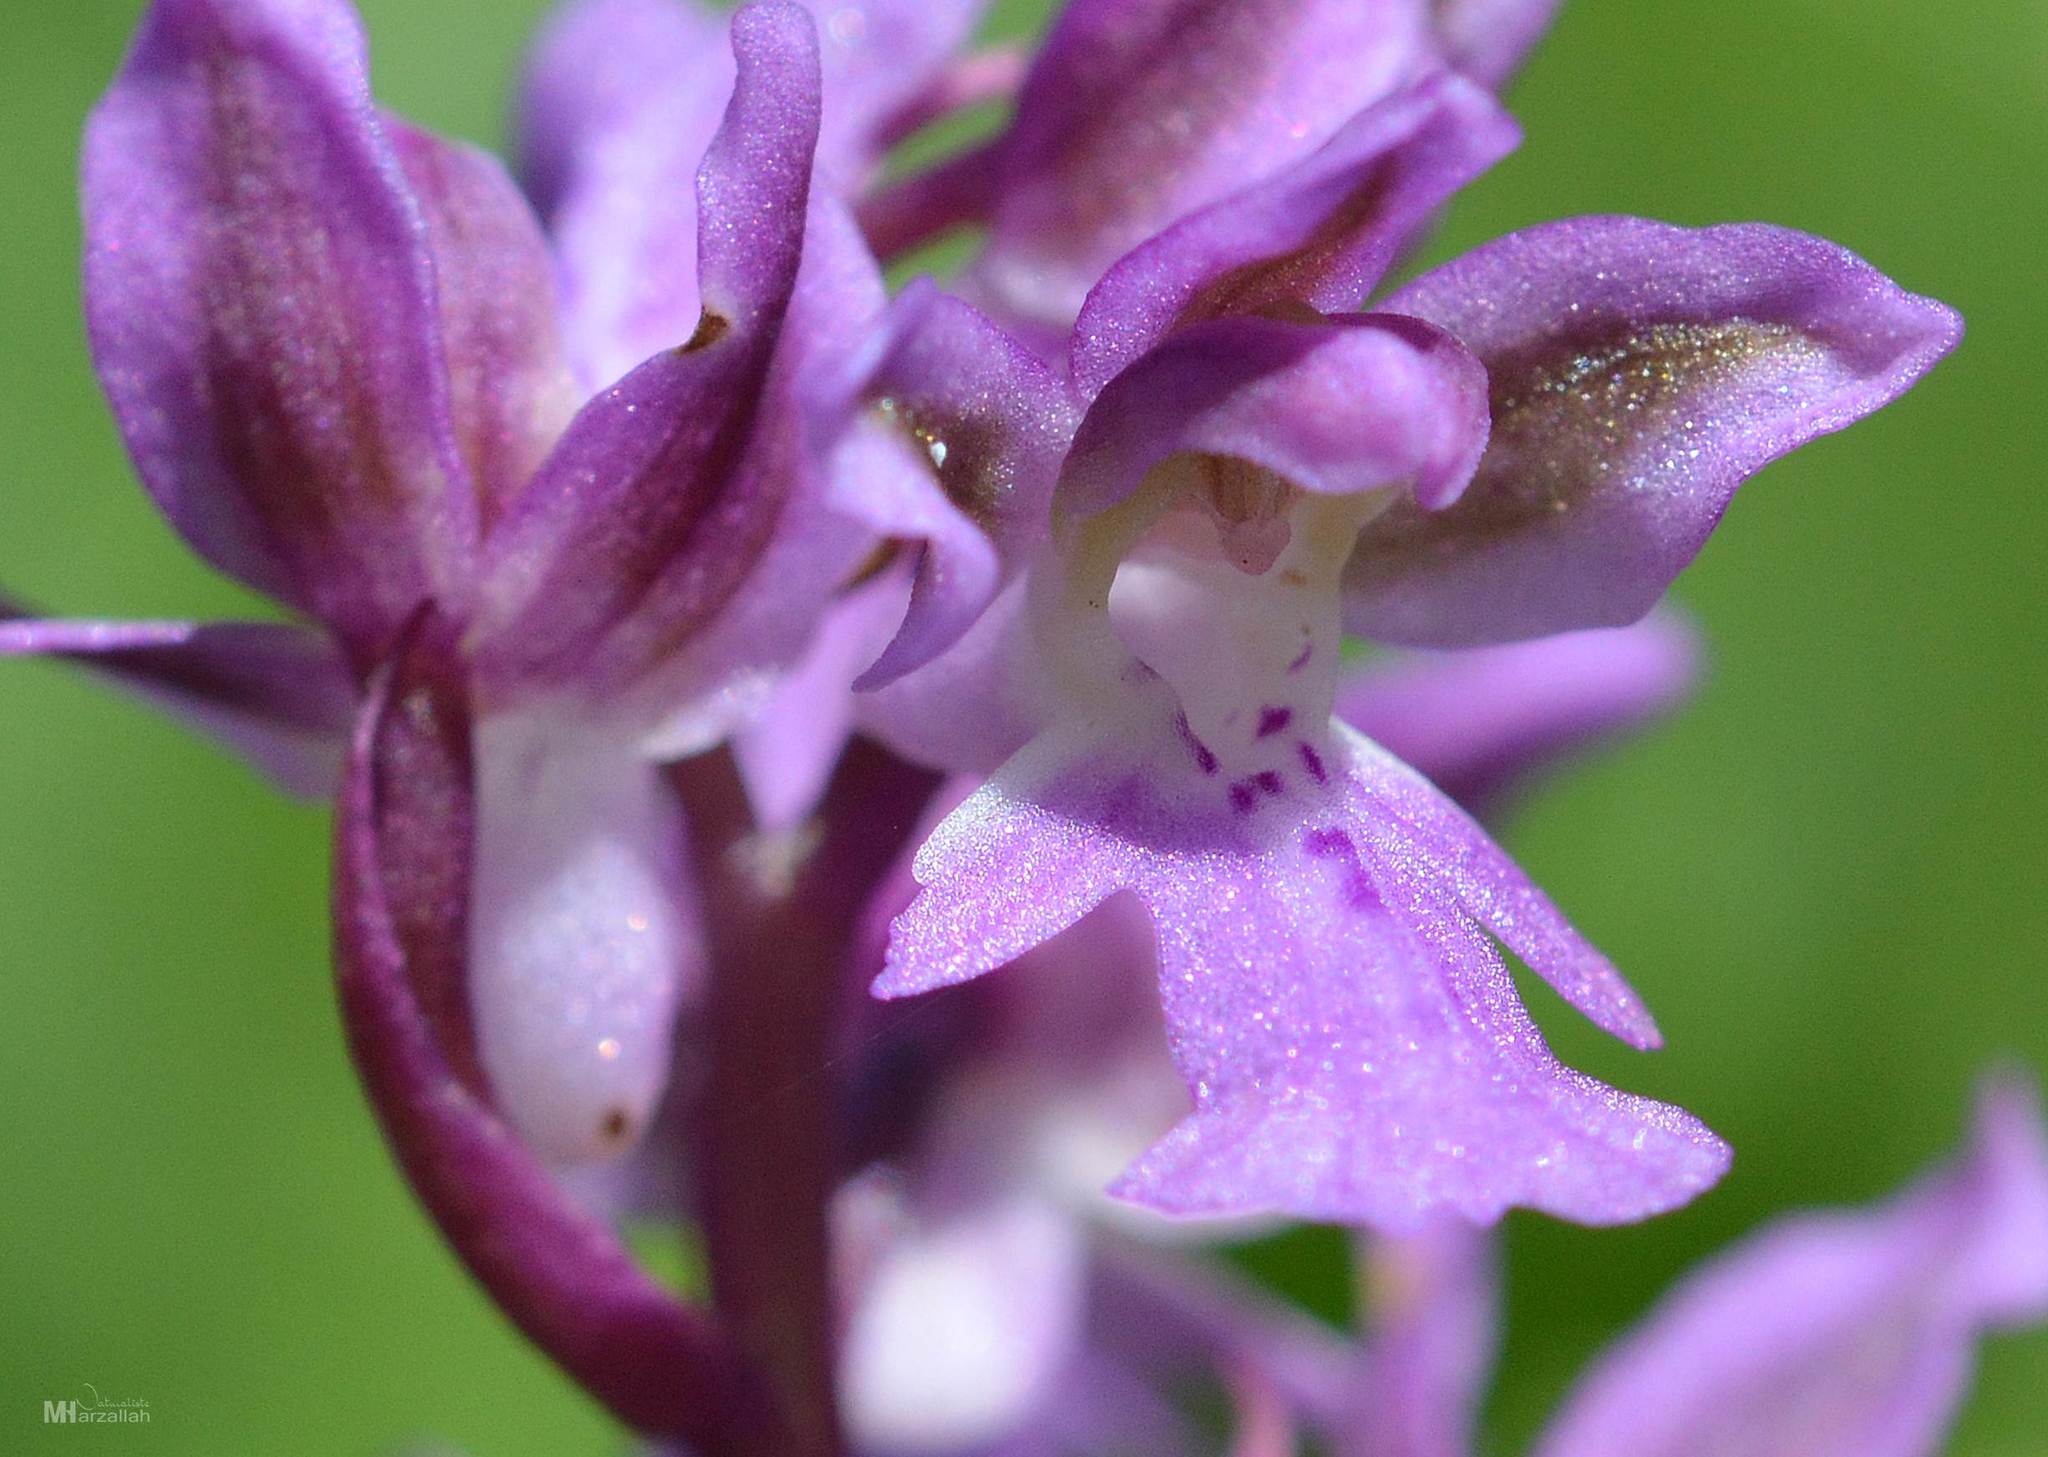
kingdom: Plantae
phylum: Tracheophyta
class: Liliopsida
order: Asparagales
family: Orchidaceae
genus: Orchis
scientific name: Orchis patens
